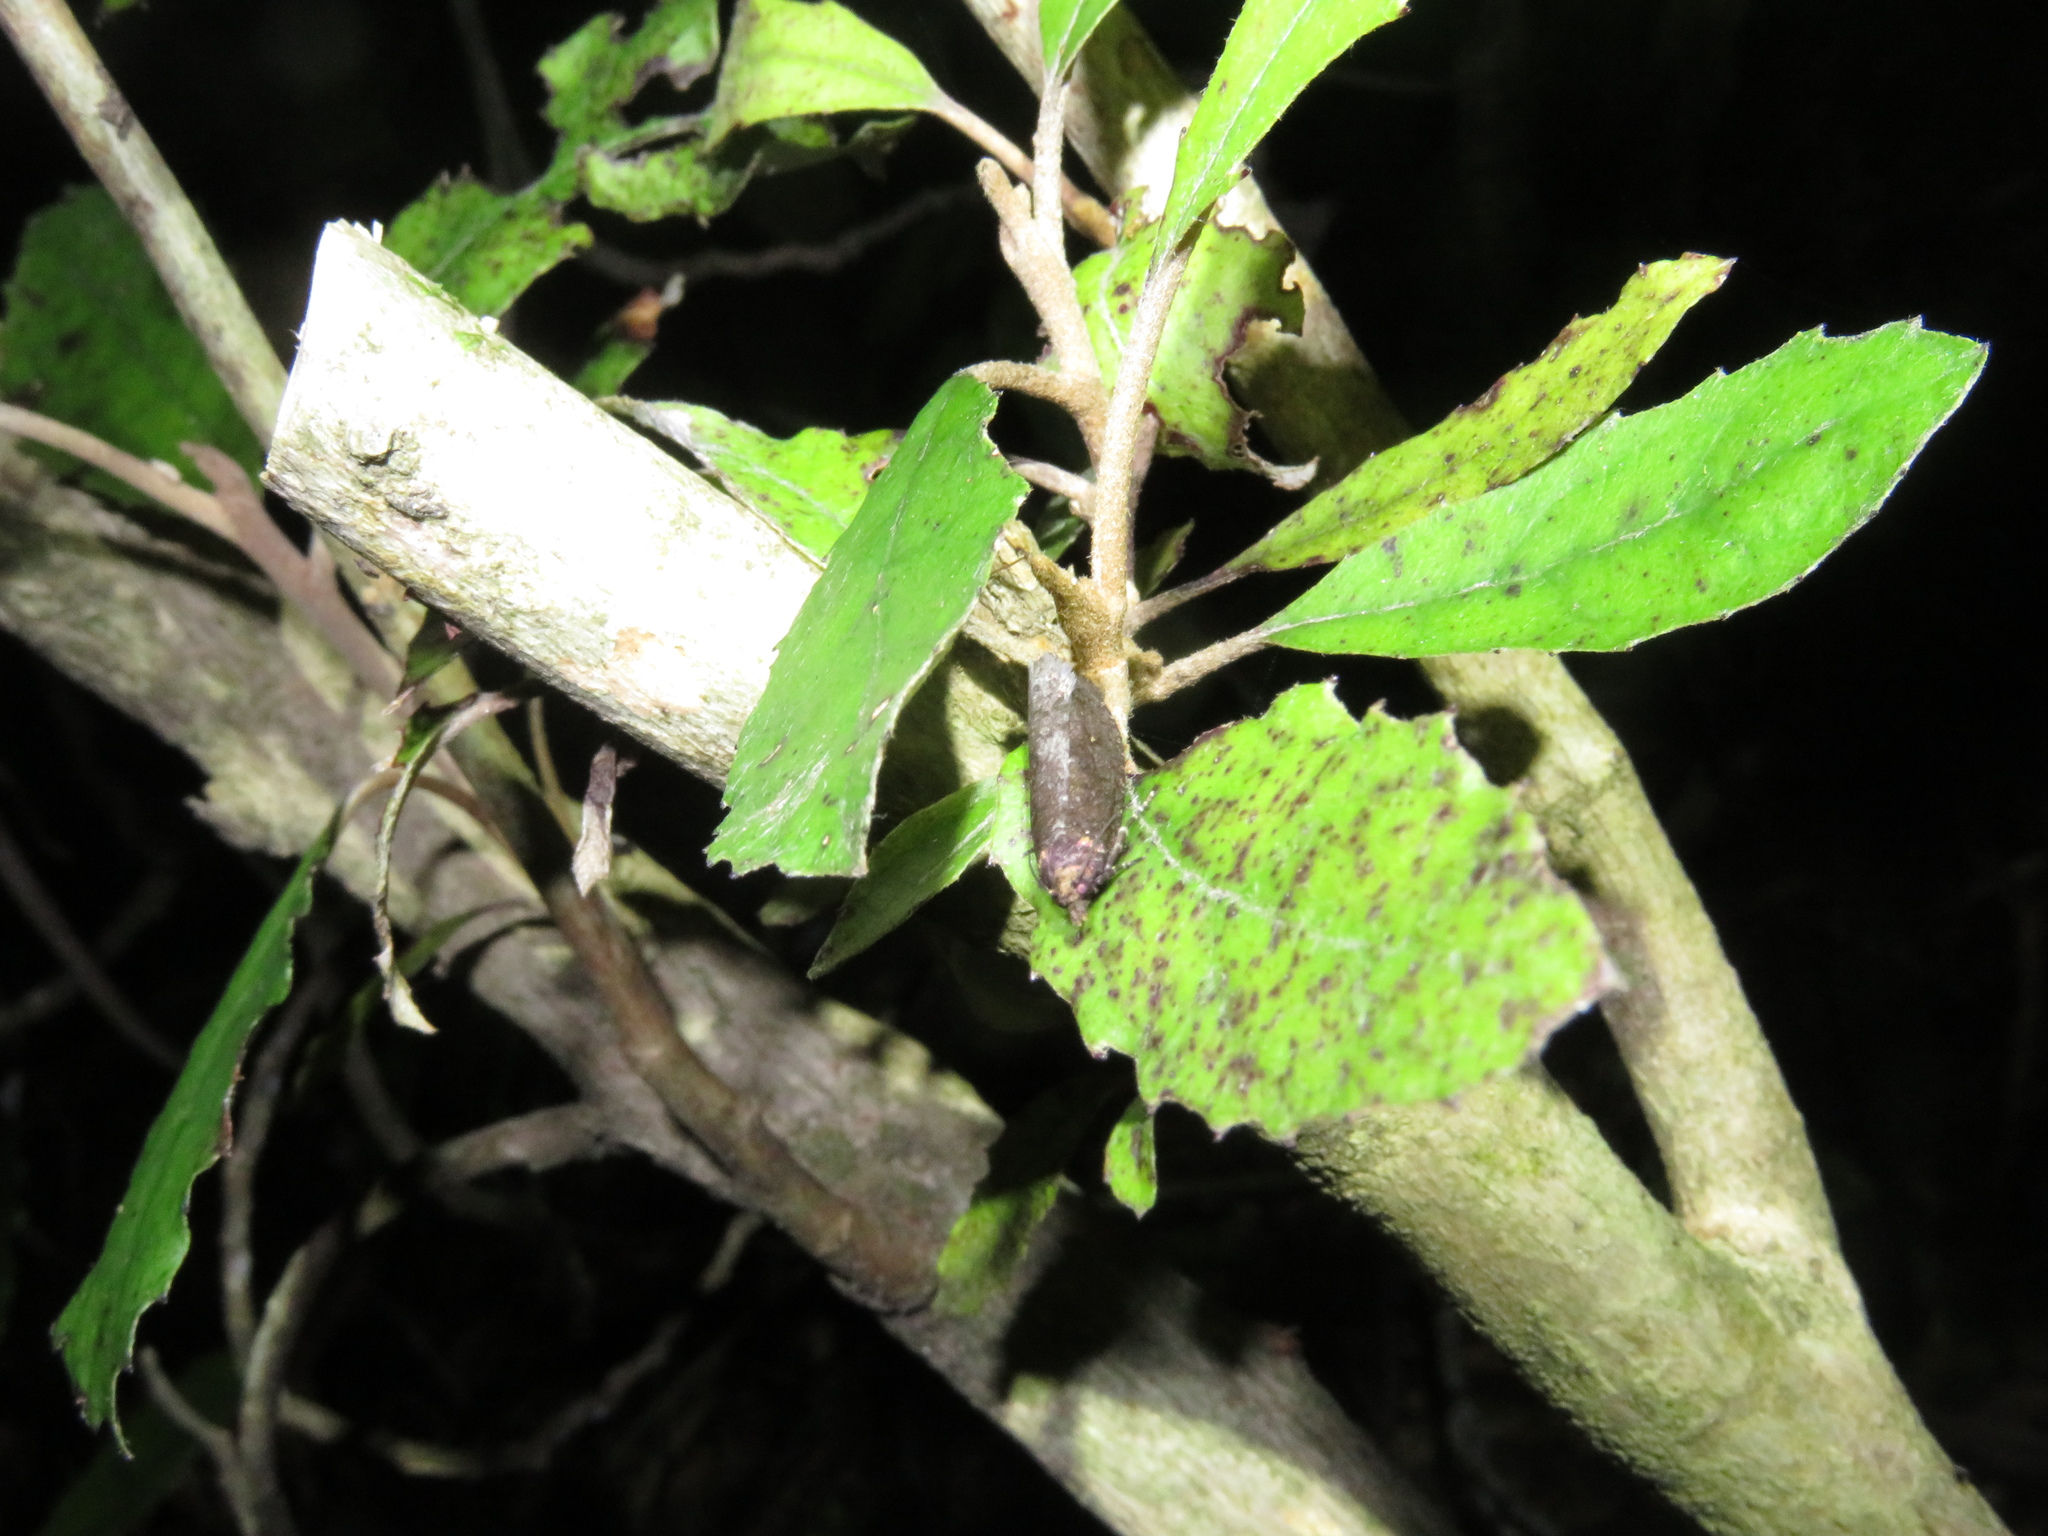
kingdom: Animalia
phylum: Arthropoda
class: Insecta
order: Lepidoptera
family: Tortricidae
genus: Cryptaspasma
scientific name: Cryptaspasma querula
